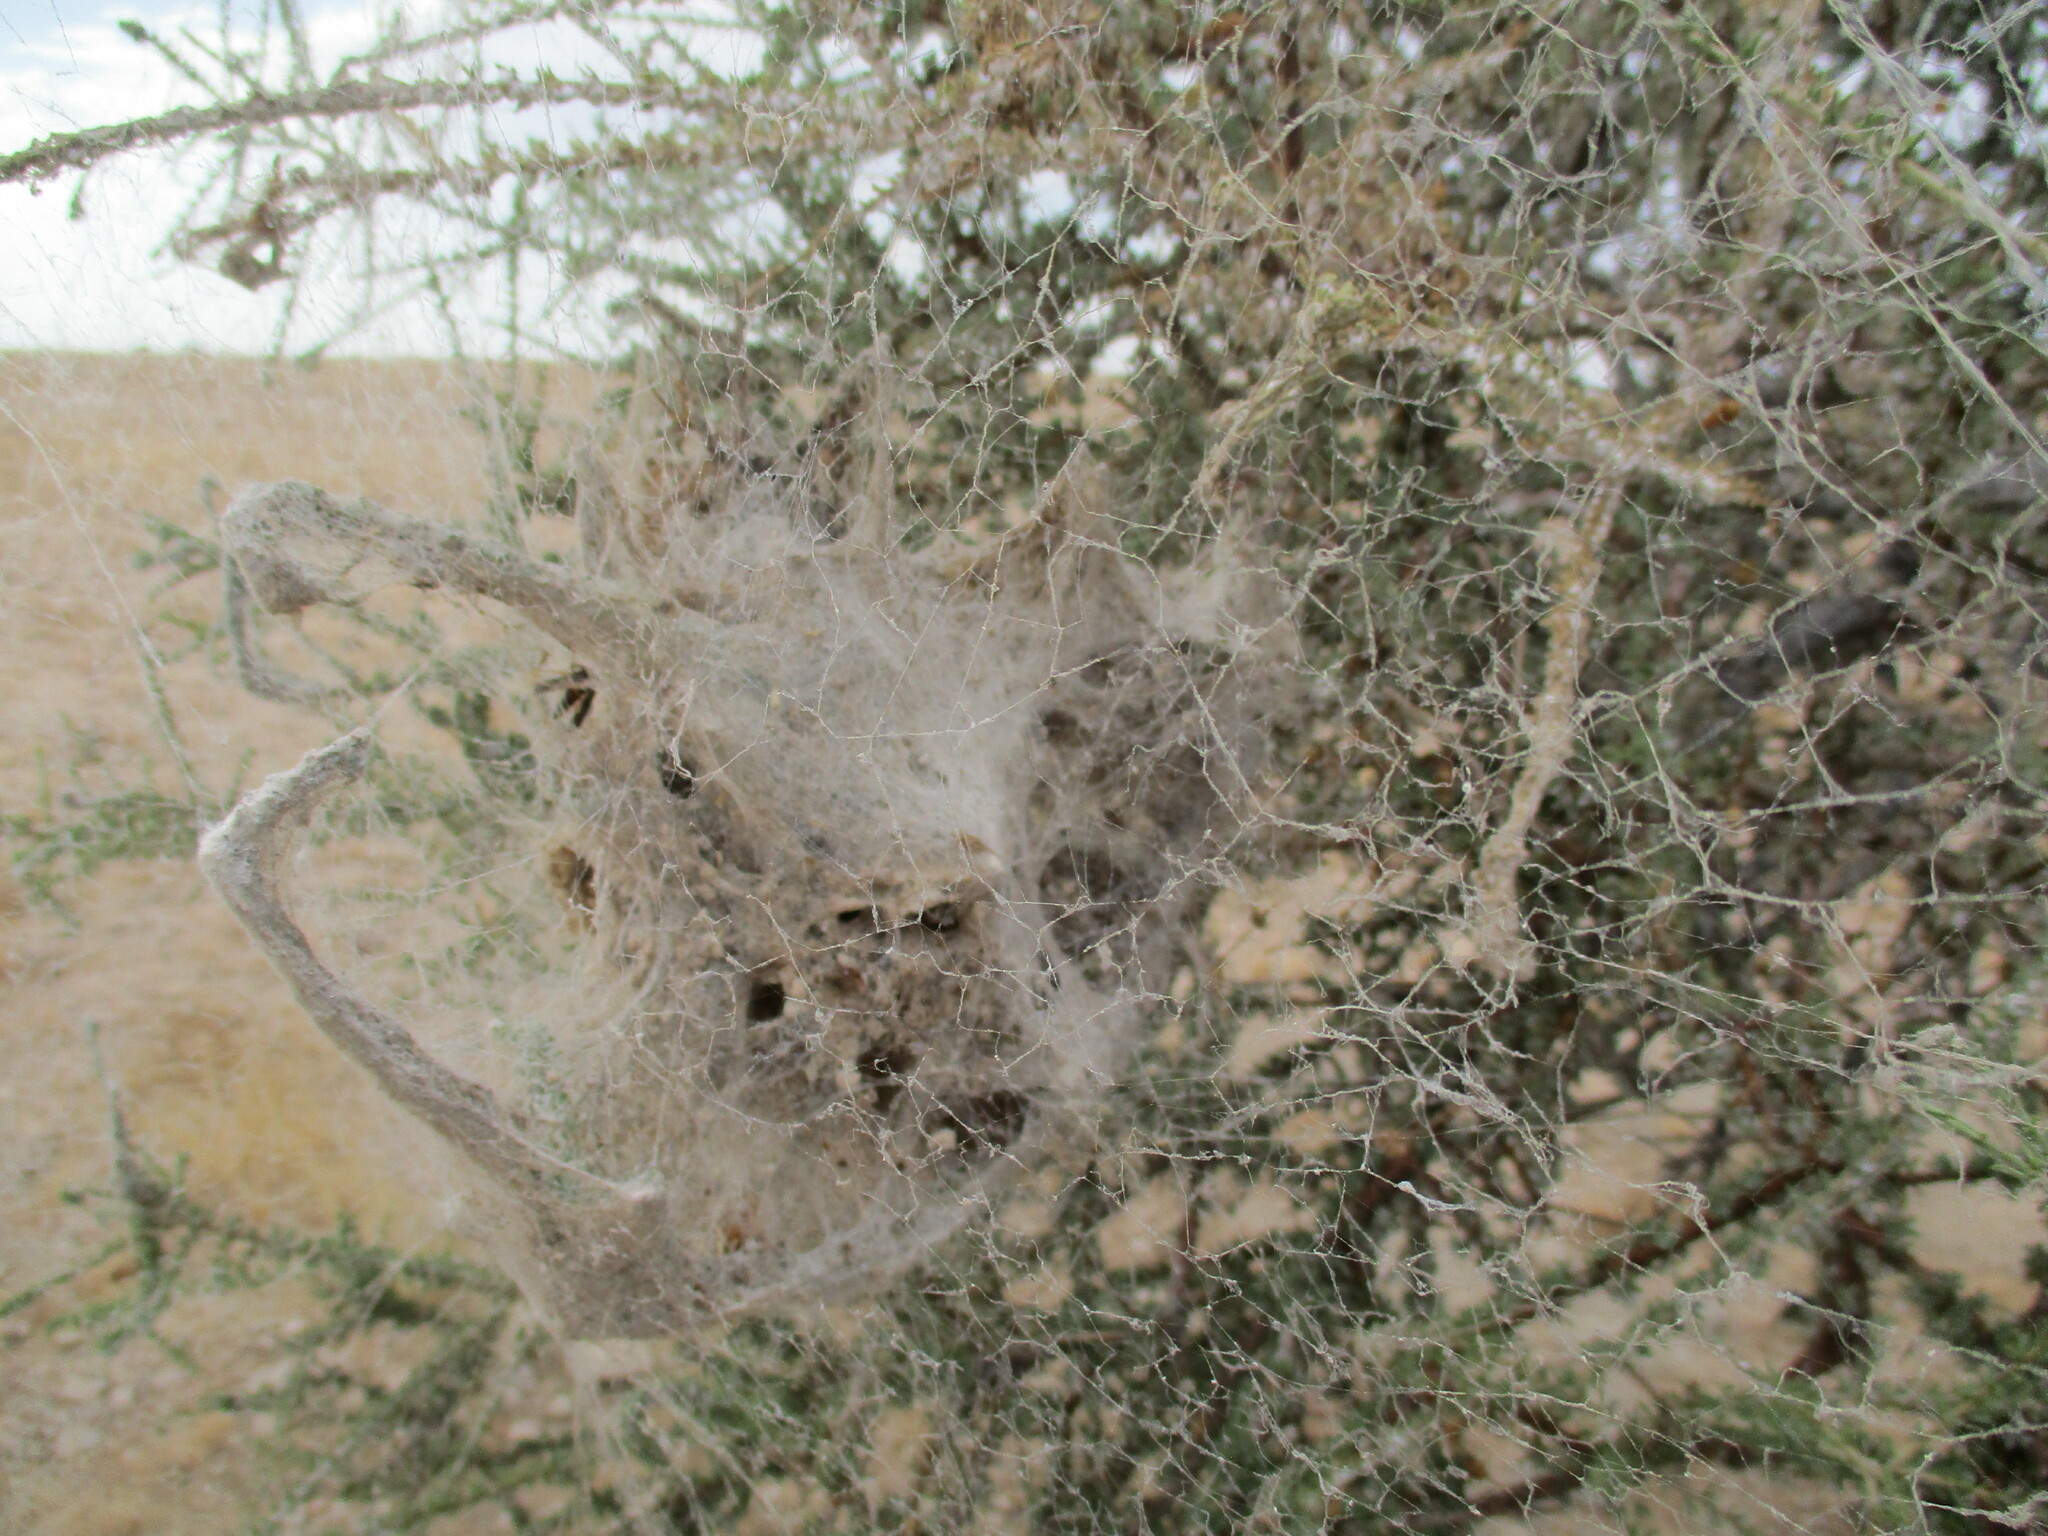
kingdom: Animalia
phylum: Arthropoda
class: Arachnida
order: Araneae
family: Eresidae
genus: Stegodyphus
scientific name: Stegodyphus dumicola
